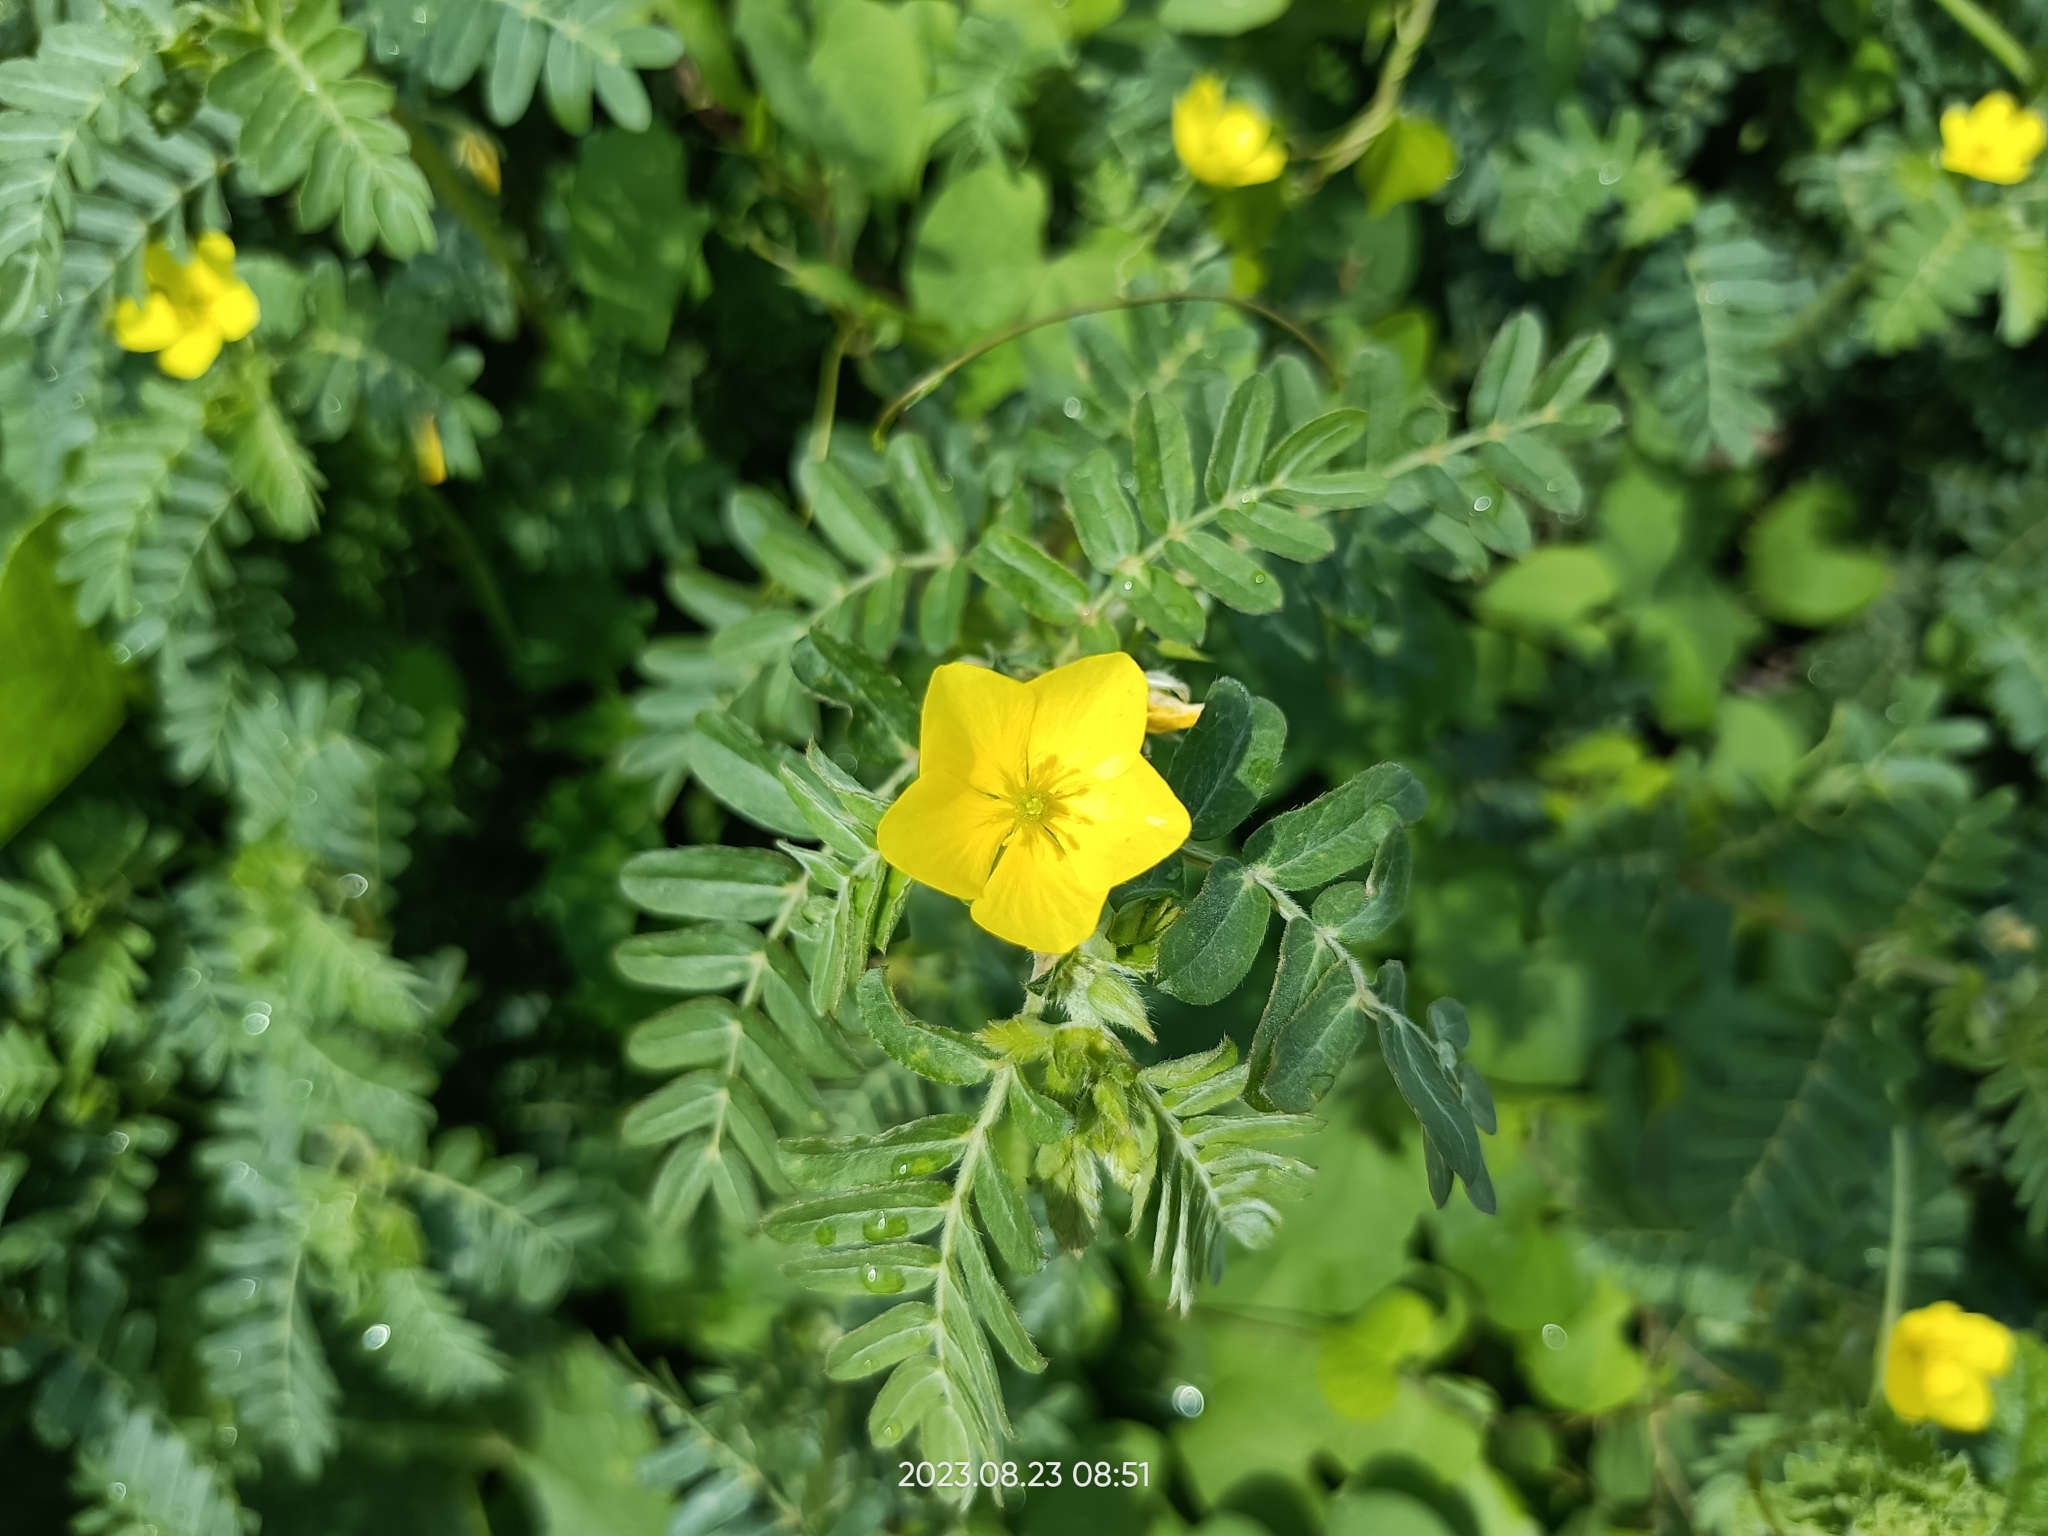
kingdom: Plantae
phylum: Tracheophyta
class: Magnoliopsida
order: Zygophyllales
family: Zygophyllaceae
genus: Tribulus
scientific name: Tribulus cistoides
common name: Jamaican feverplant
